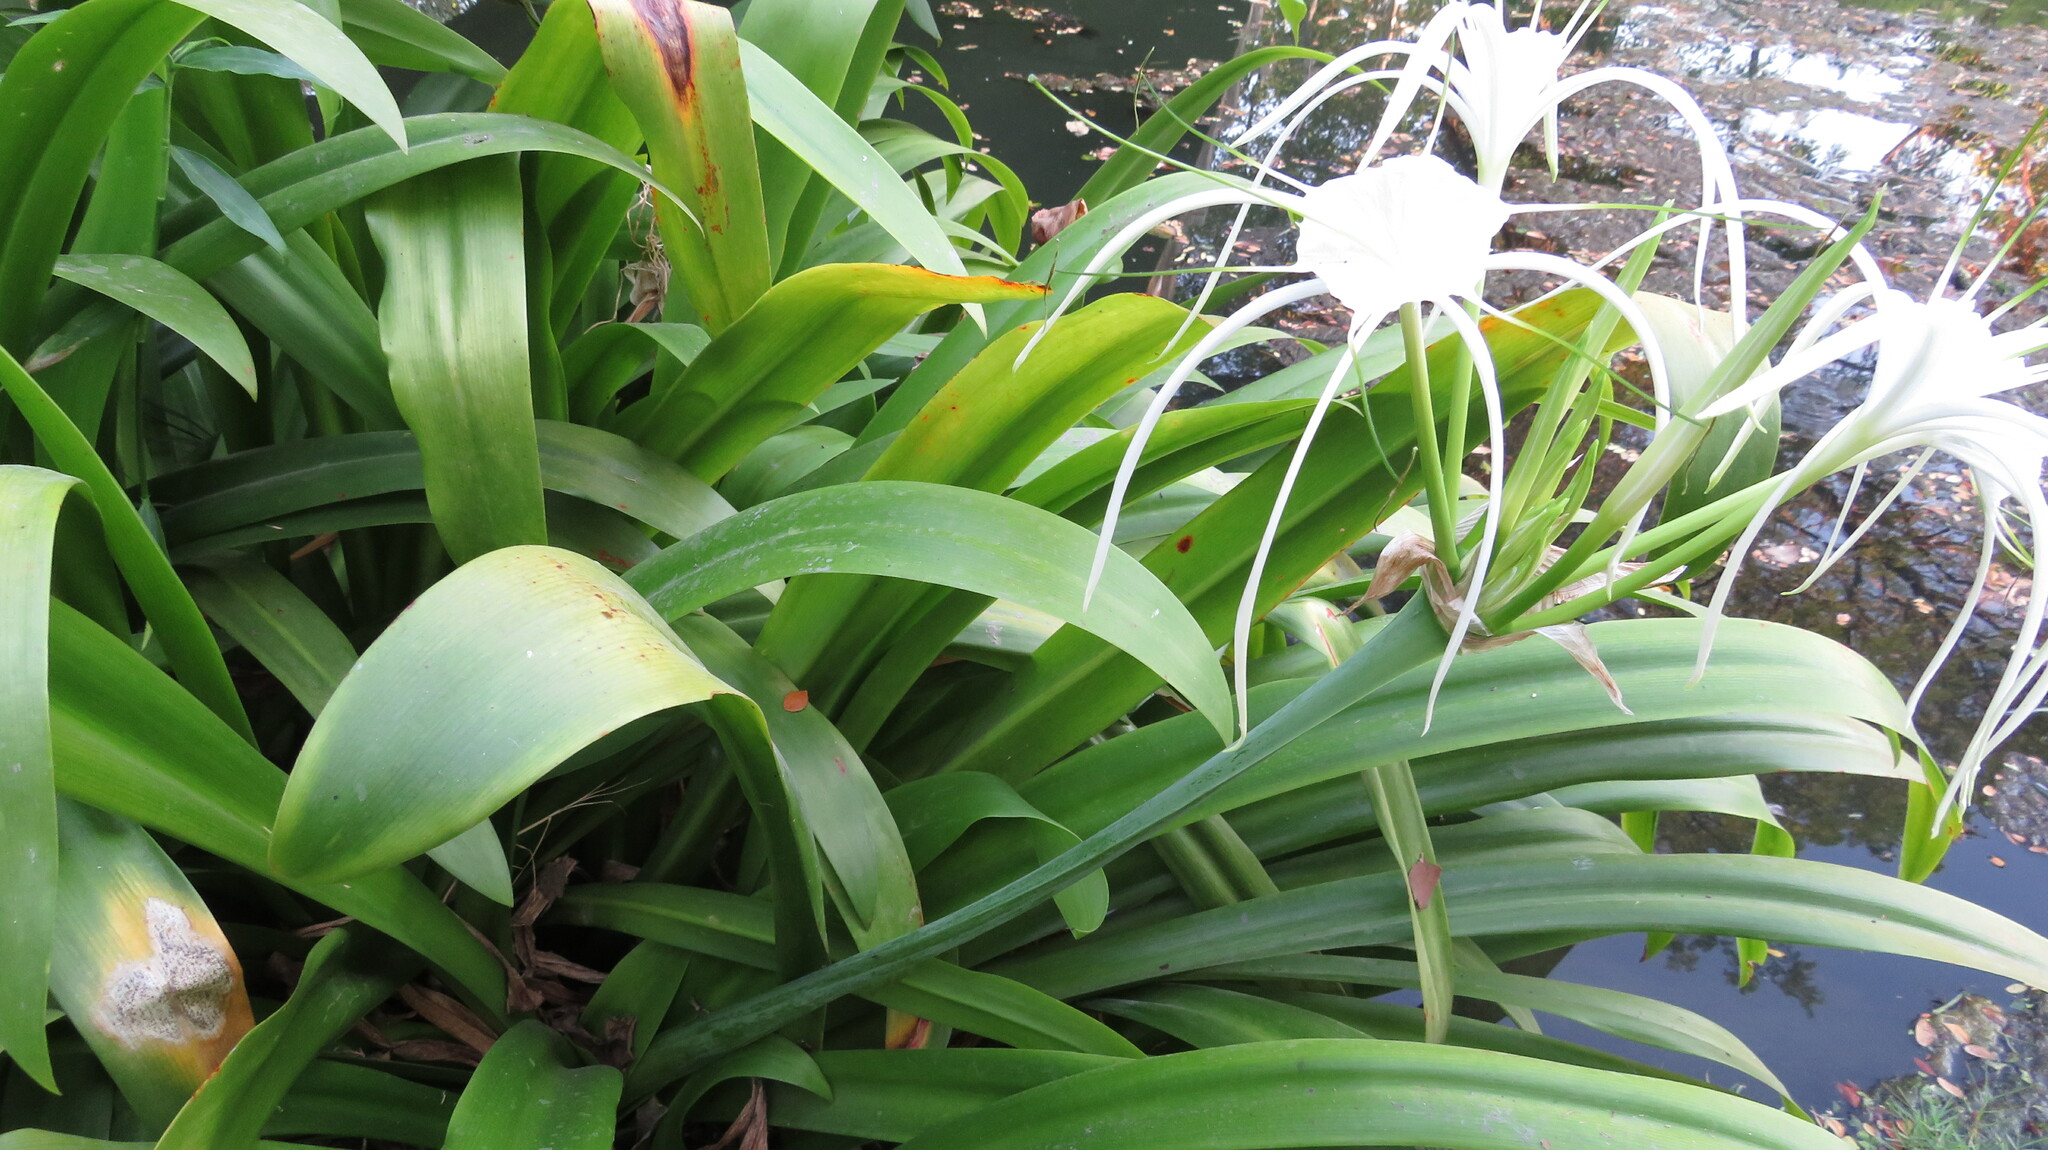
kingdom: Plantae
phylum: Tracheophyta
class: Liliopsida
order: Asparagales
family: Amaryllidaceae
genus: Hymenocallis
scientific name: Hymenocallis littoralis
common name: Beach spiderlily
